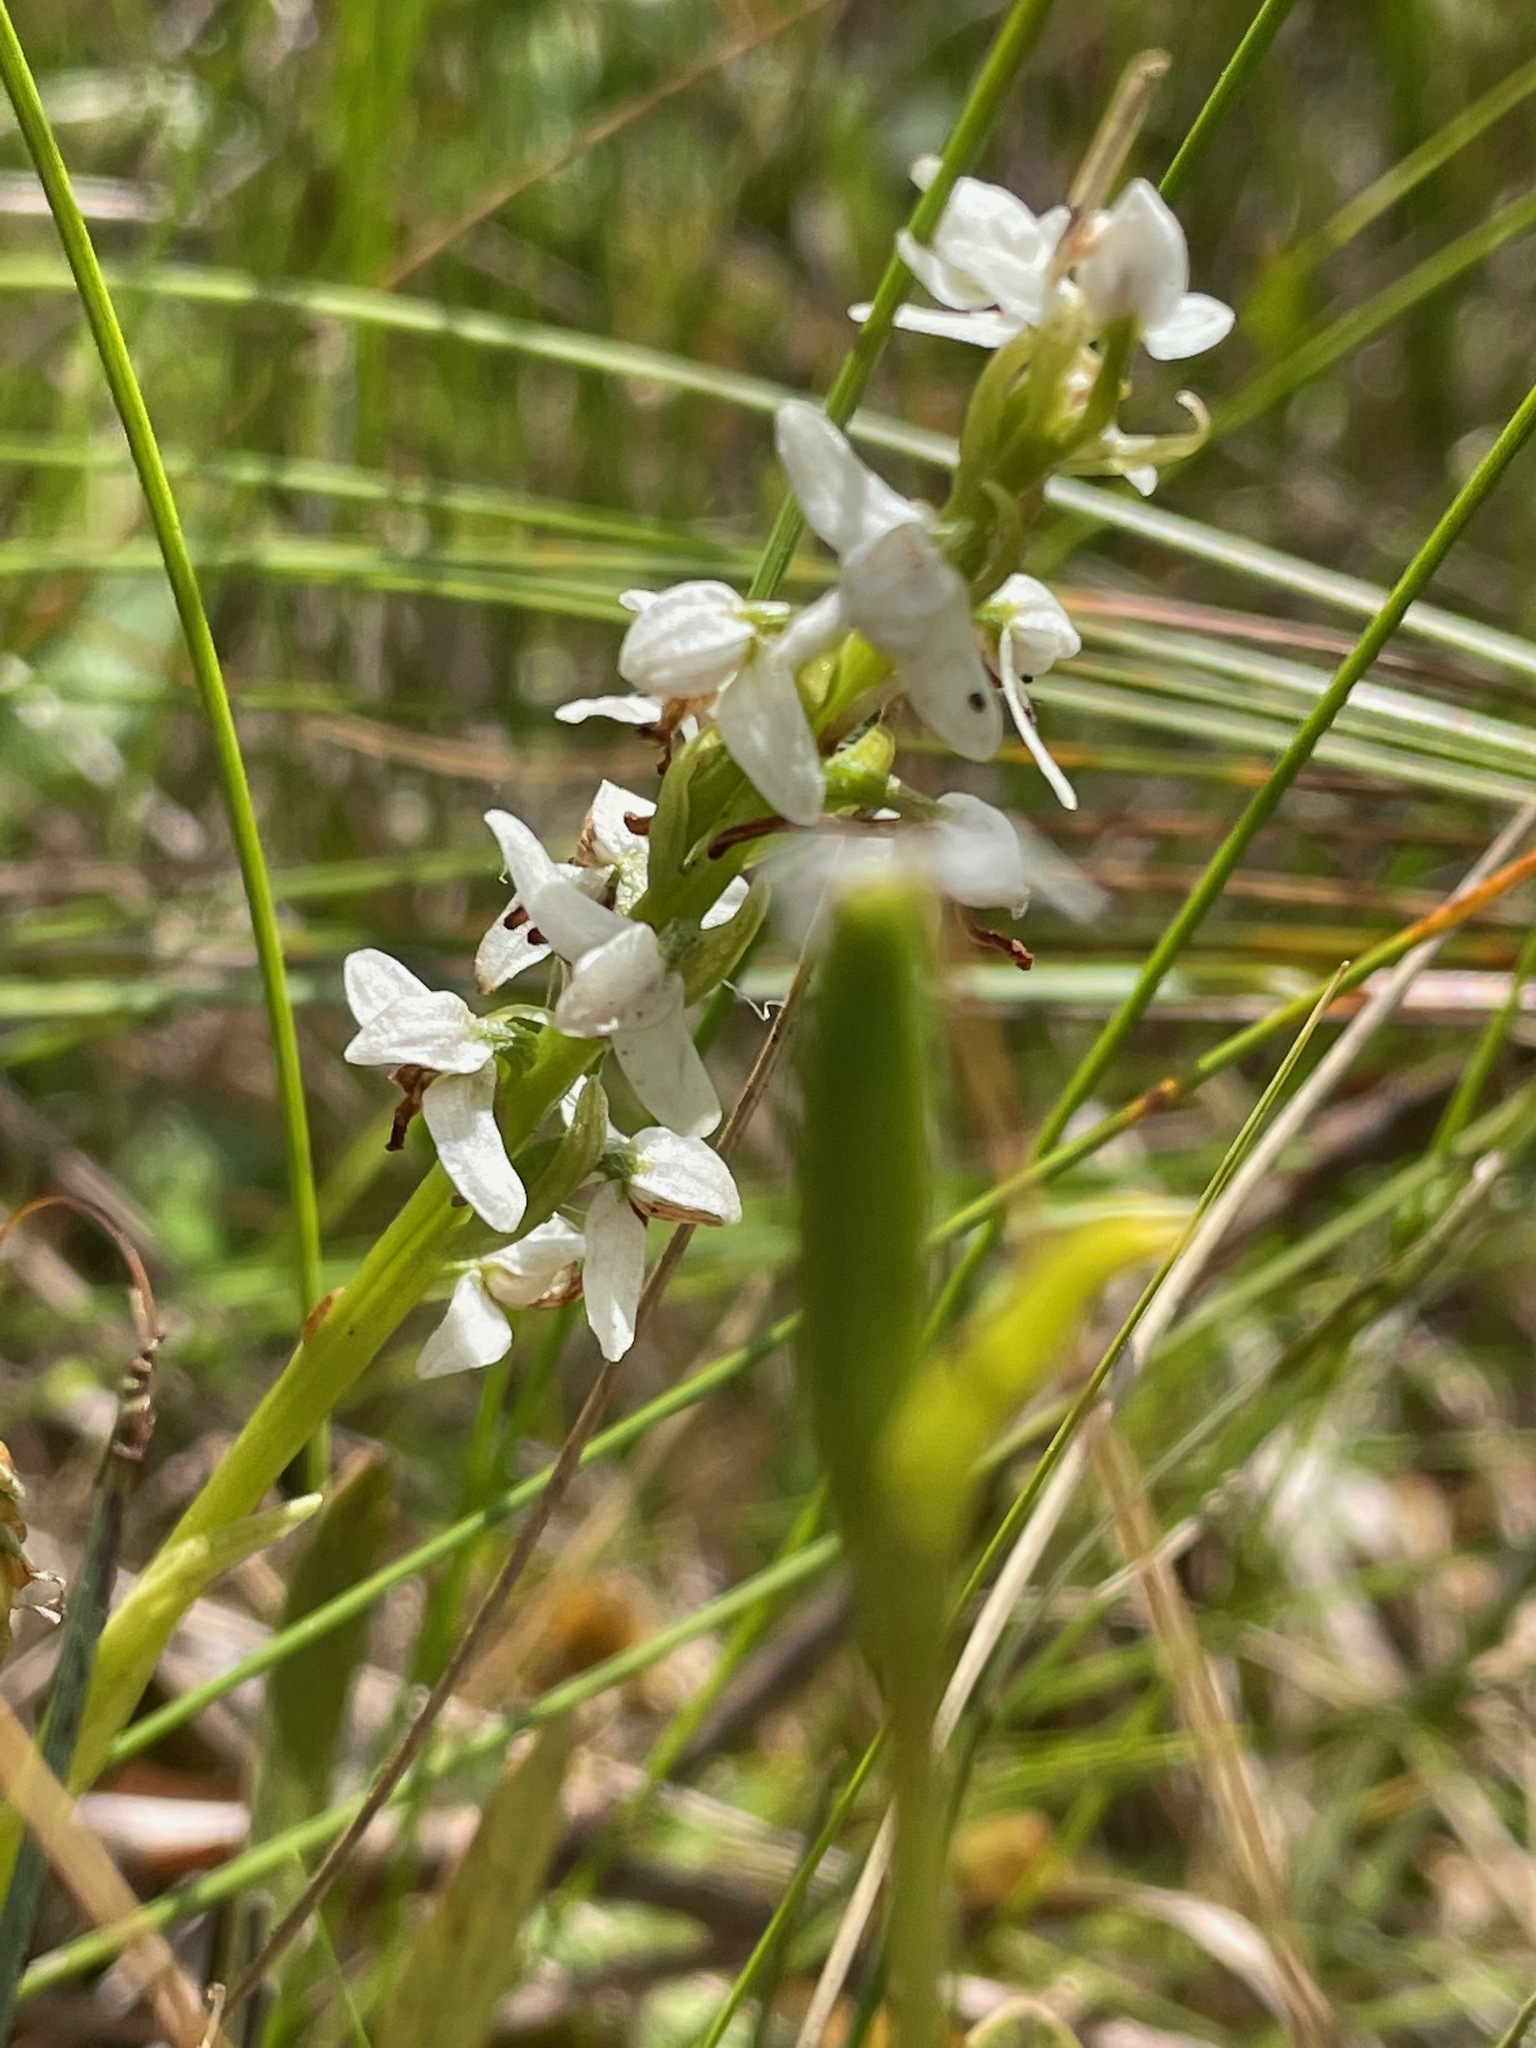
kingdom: Plantae
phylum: Tracheophyta
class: Liliopsida
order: Asparagales
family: Orchidaceae
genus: Platanthera
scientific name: Platanthera dilatata
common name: Bog candles
